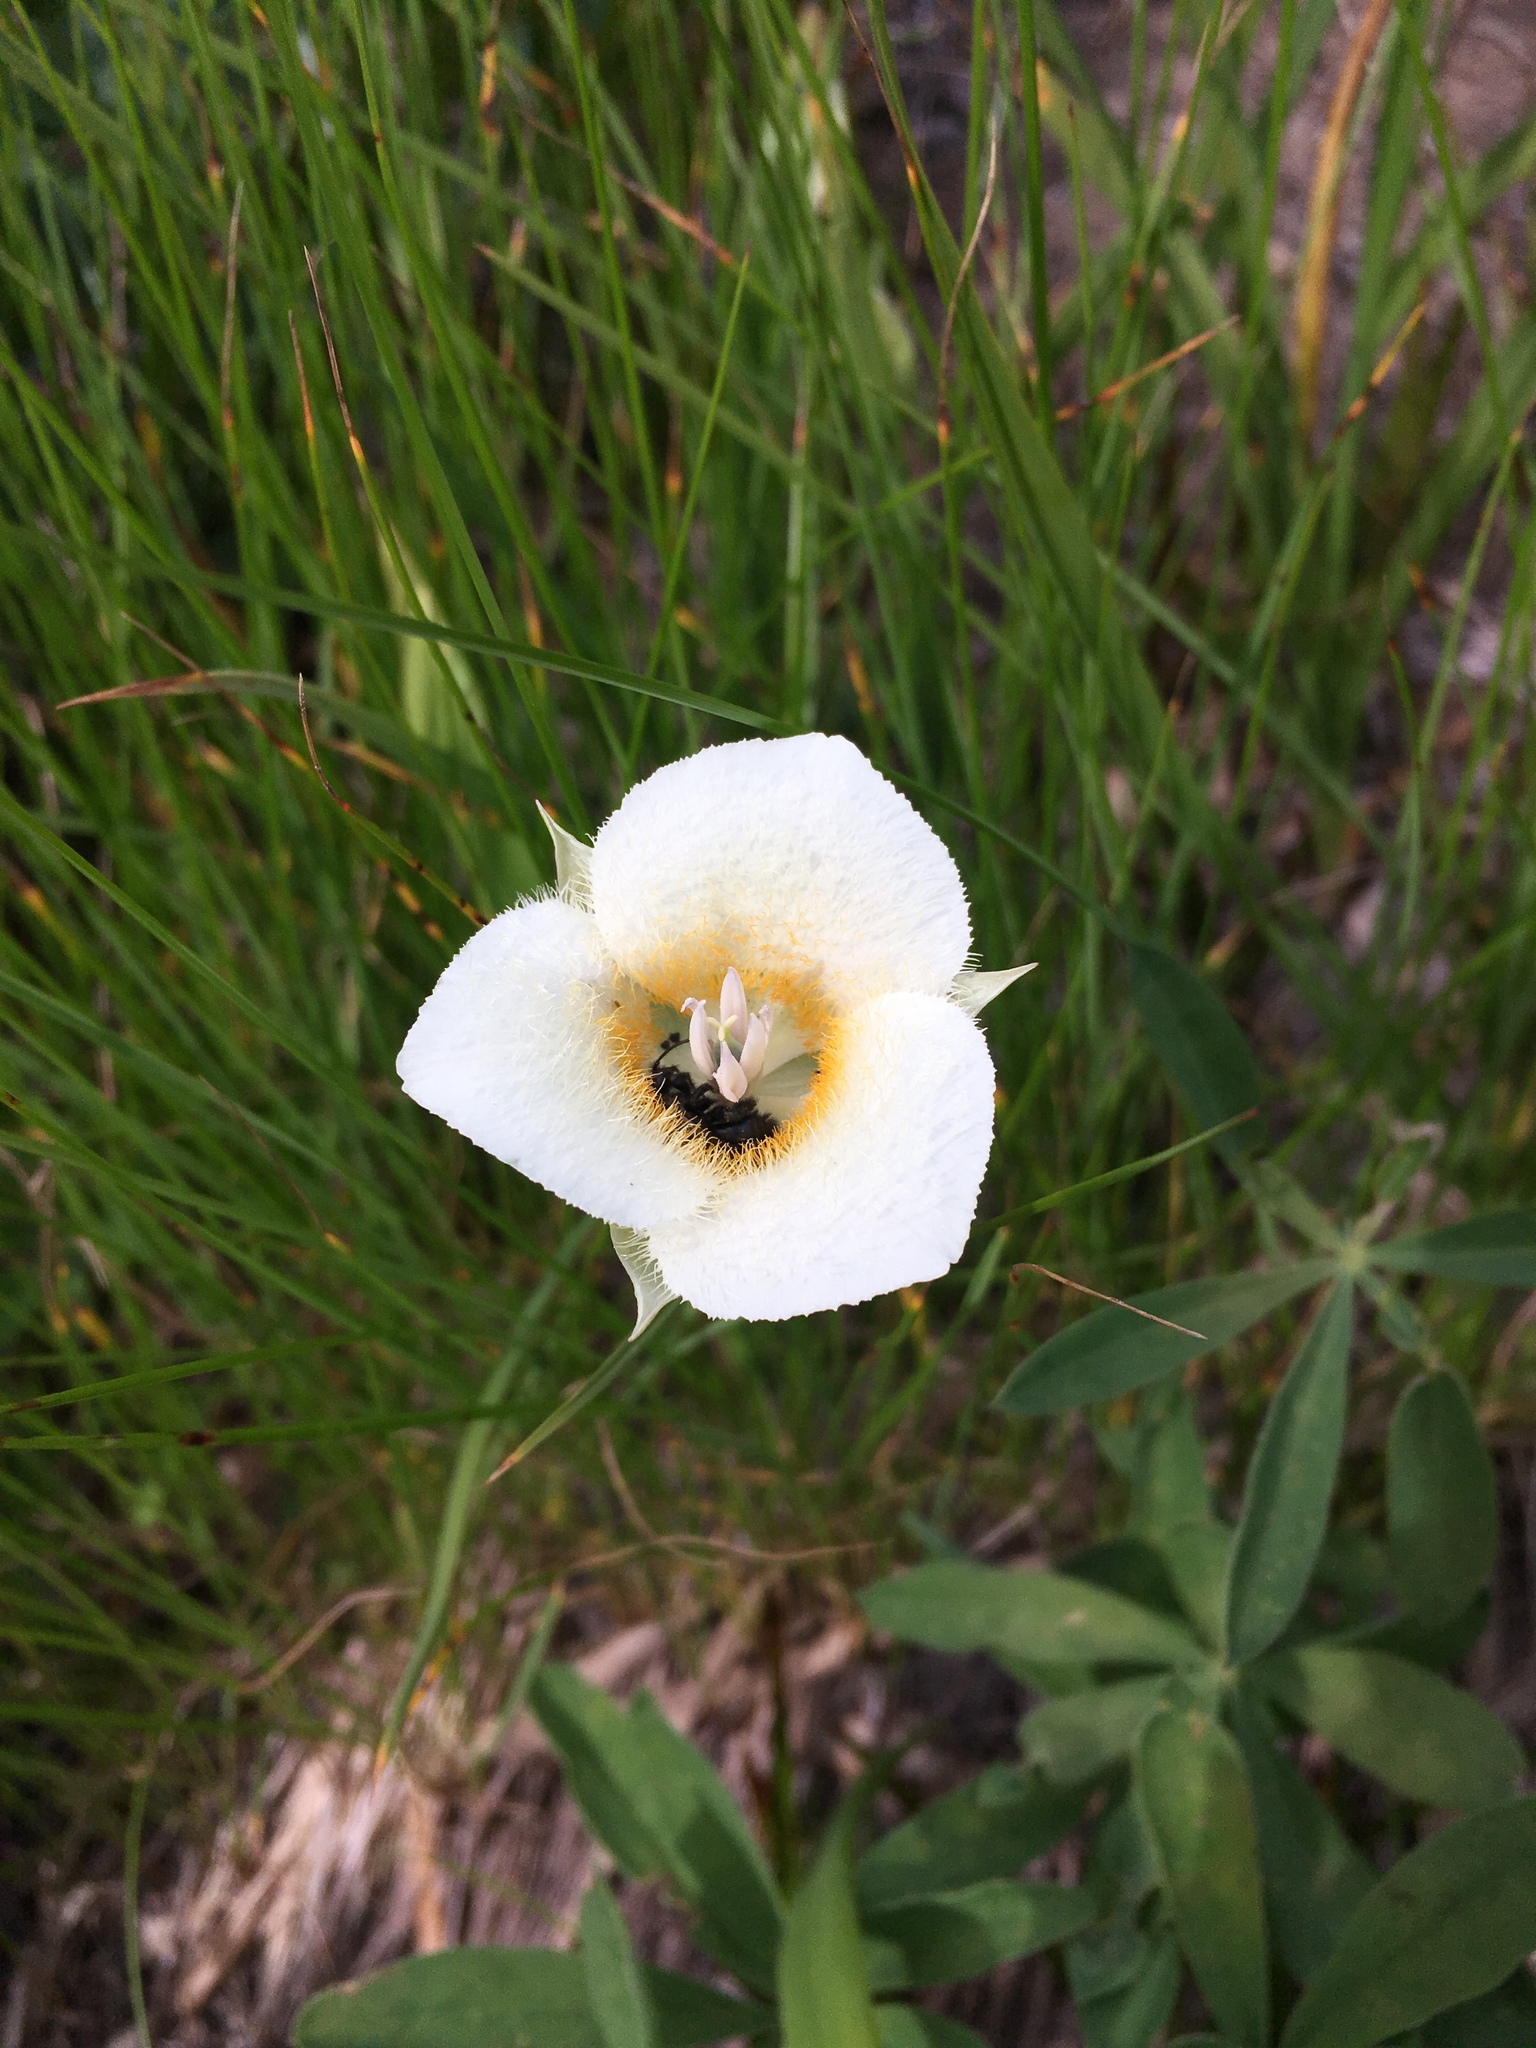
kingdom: Plantae
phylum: Tracheophyta
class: Liliopsida
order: Liliales
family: Liliaceae
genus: Calochortus
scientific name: Calochortus subalpinus
